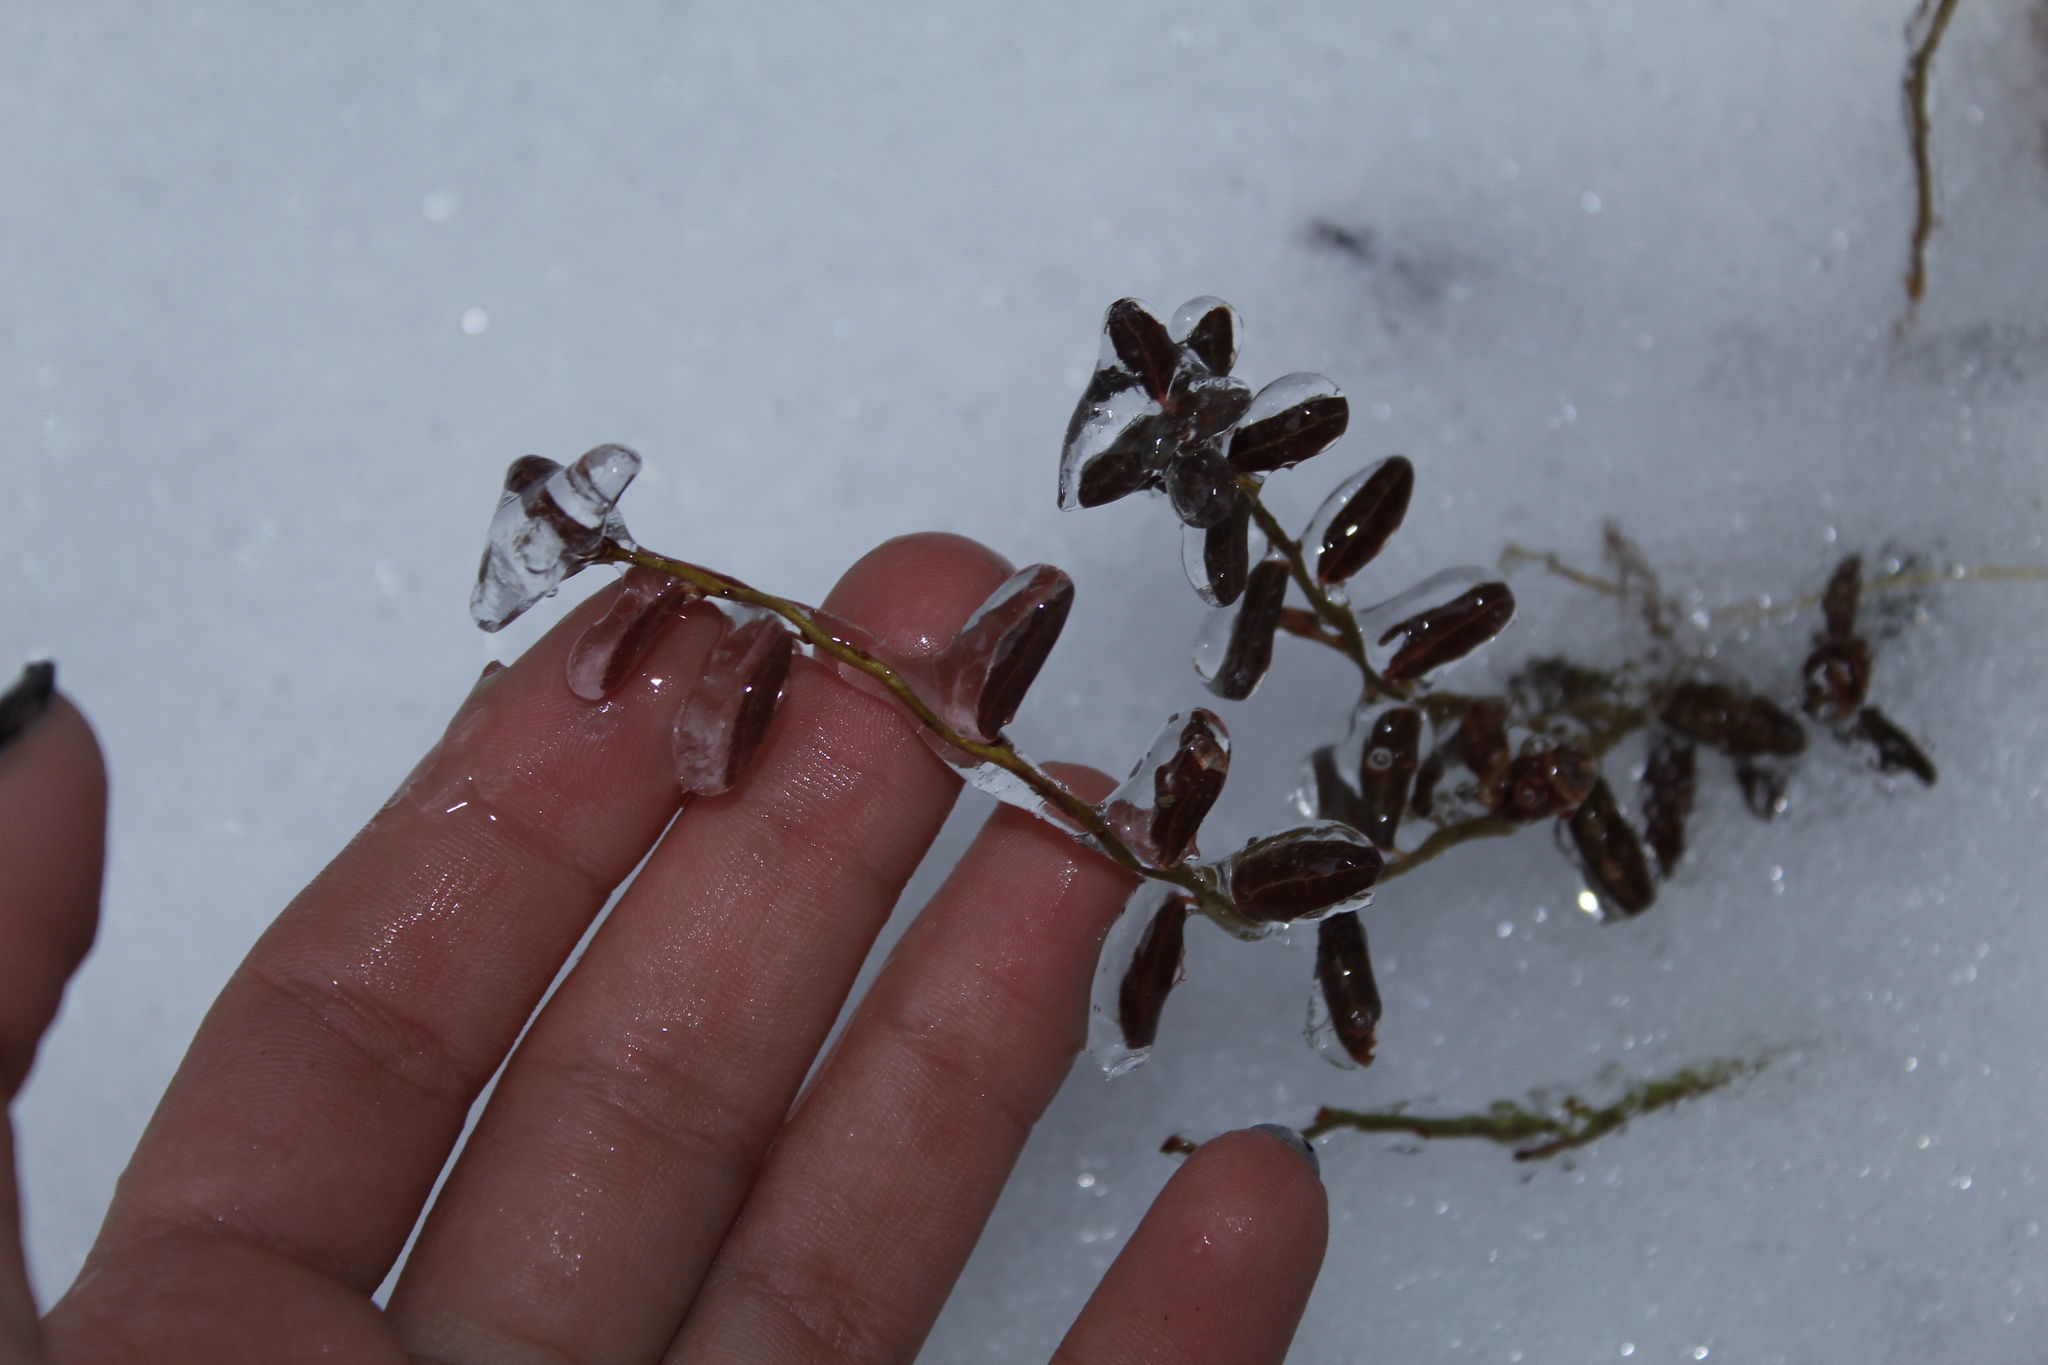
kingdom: Plantae
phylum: Tracheophyta
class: Magnoliopsida
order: Ericales
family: Ericaceae
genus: Vaccinium
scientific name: Vaccinium macrocarpon
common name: American cranberry
